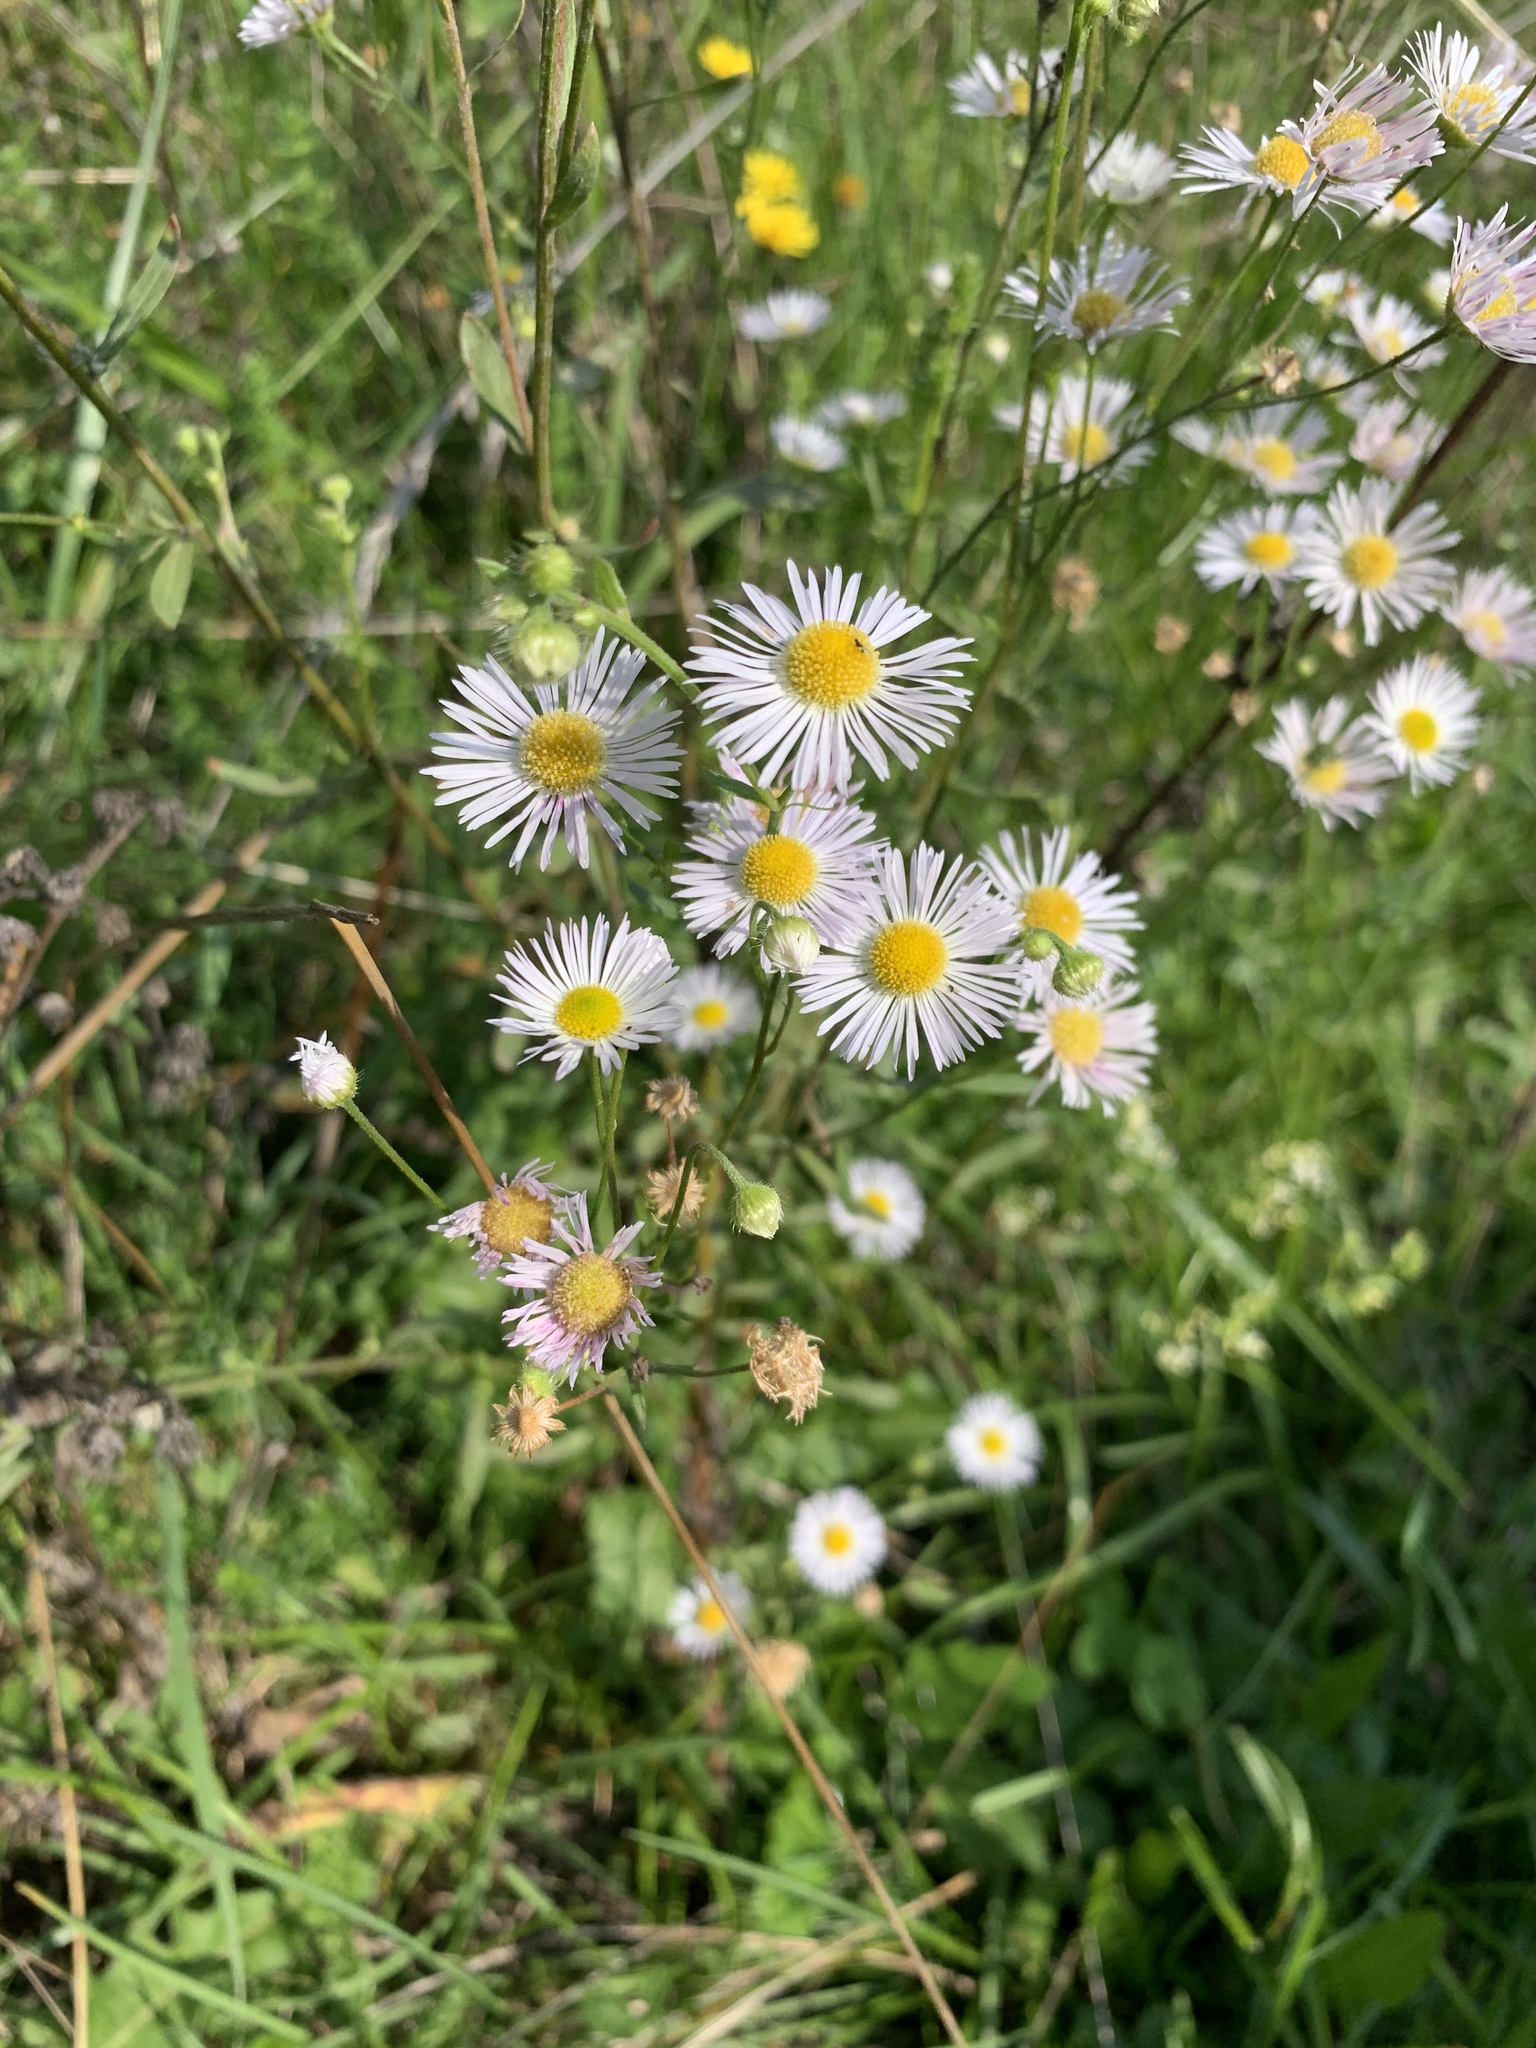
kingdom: Plantae
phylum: Tracheophyta
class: Magnoliopsida
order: Asterales
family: Asteraceae
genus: Erigeron
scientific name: Erigeron annuus
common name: Tall fleabane
